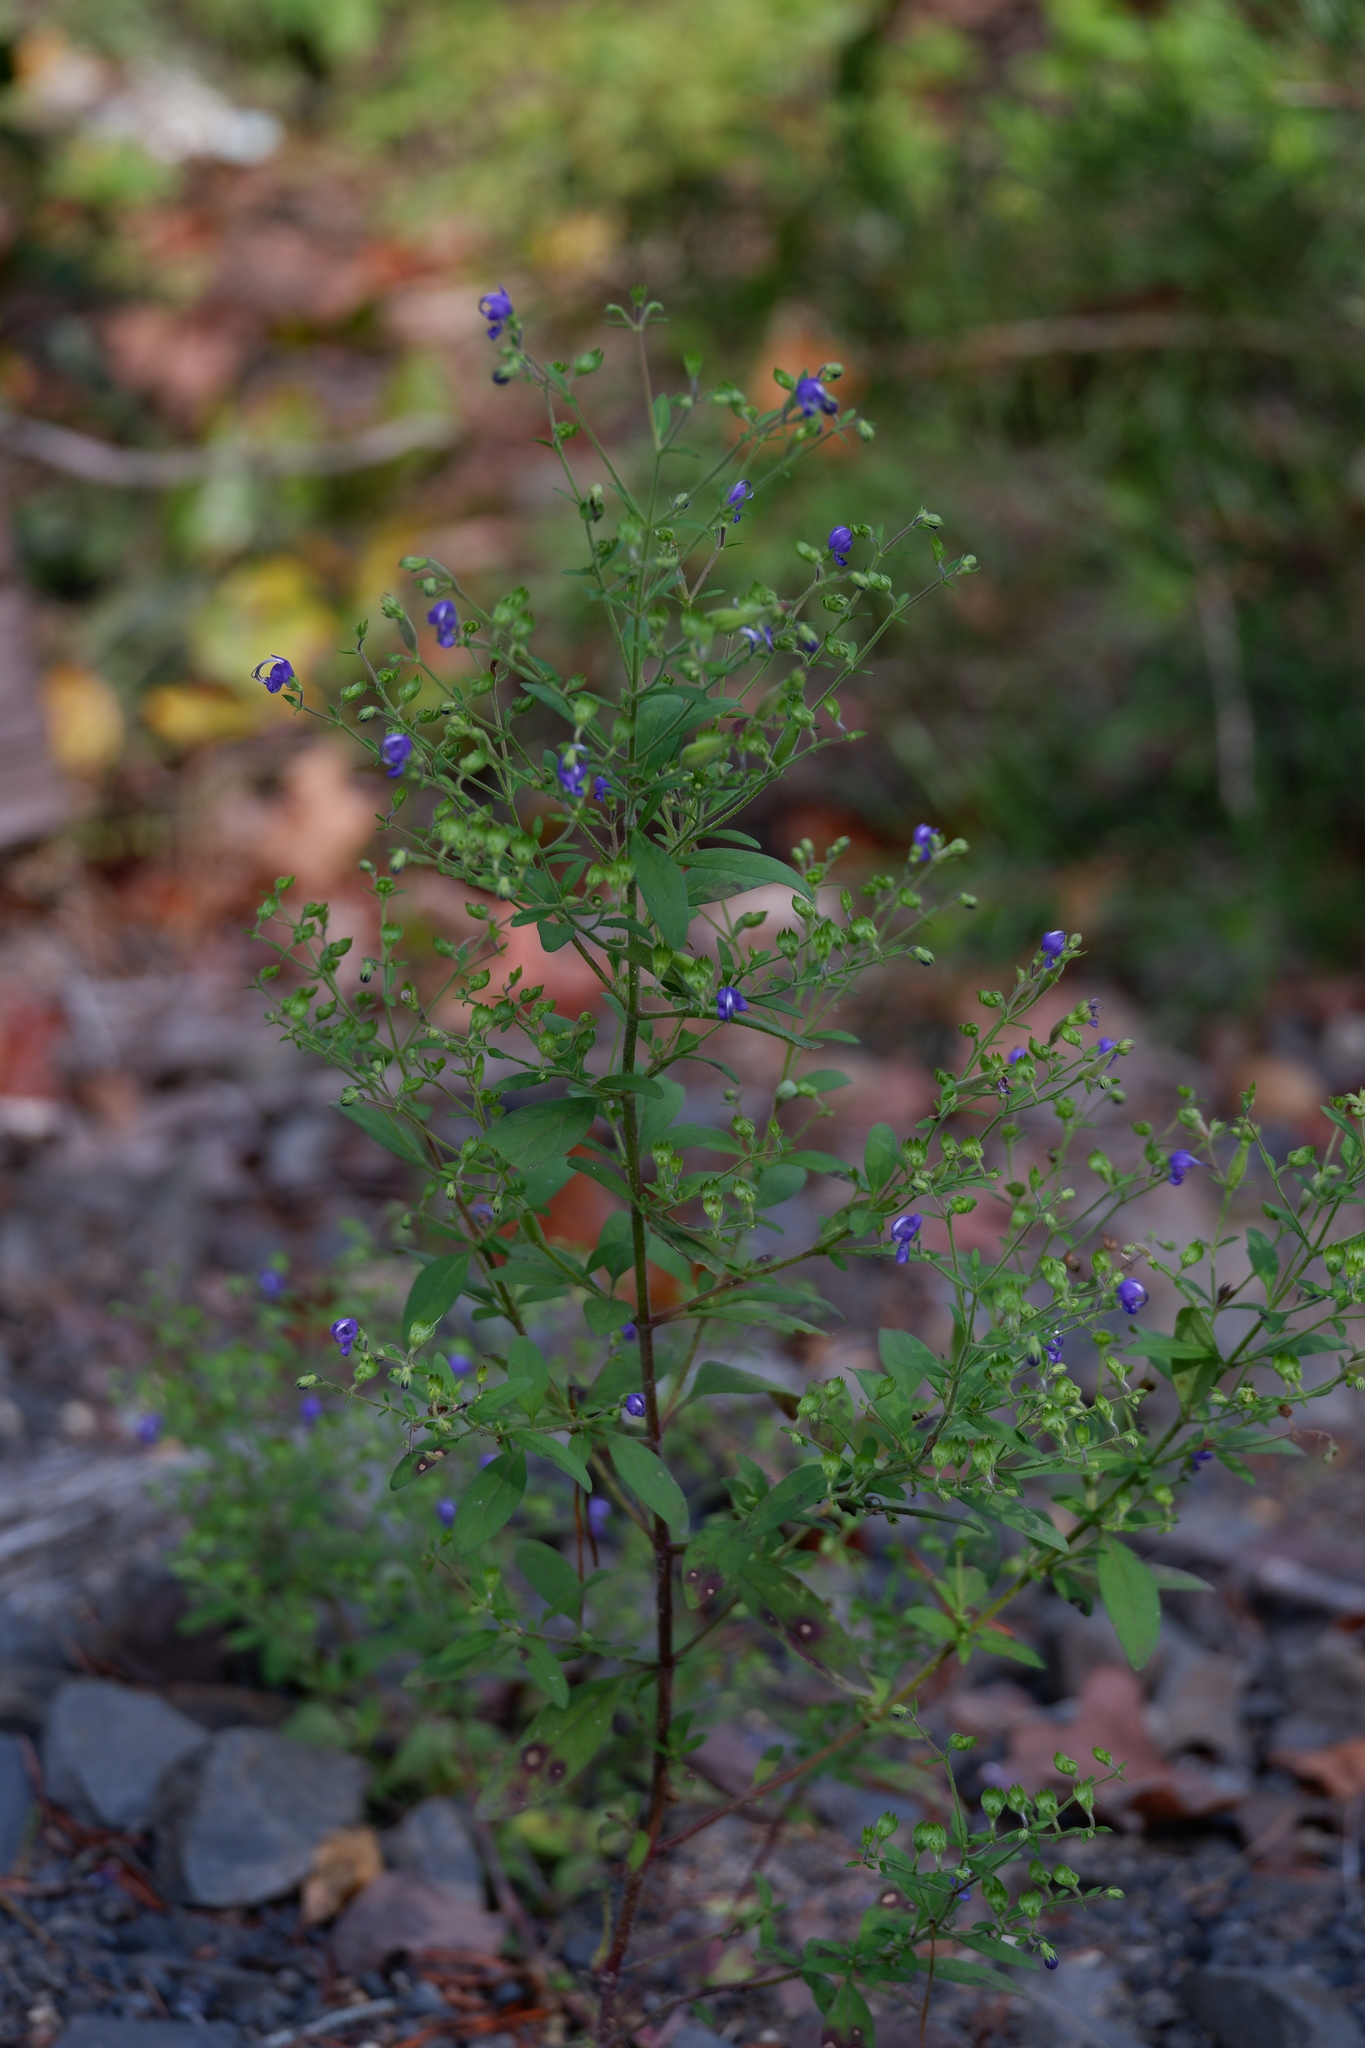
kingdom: Plantae
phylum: Tracheophyta
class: Magnoliopsida
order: Lamiales
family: Lamiaceae
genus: Trichostema
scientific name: Trichostema dichotomum
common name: Bastard pennyroyal
